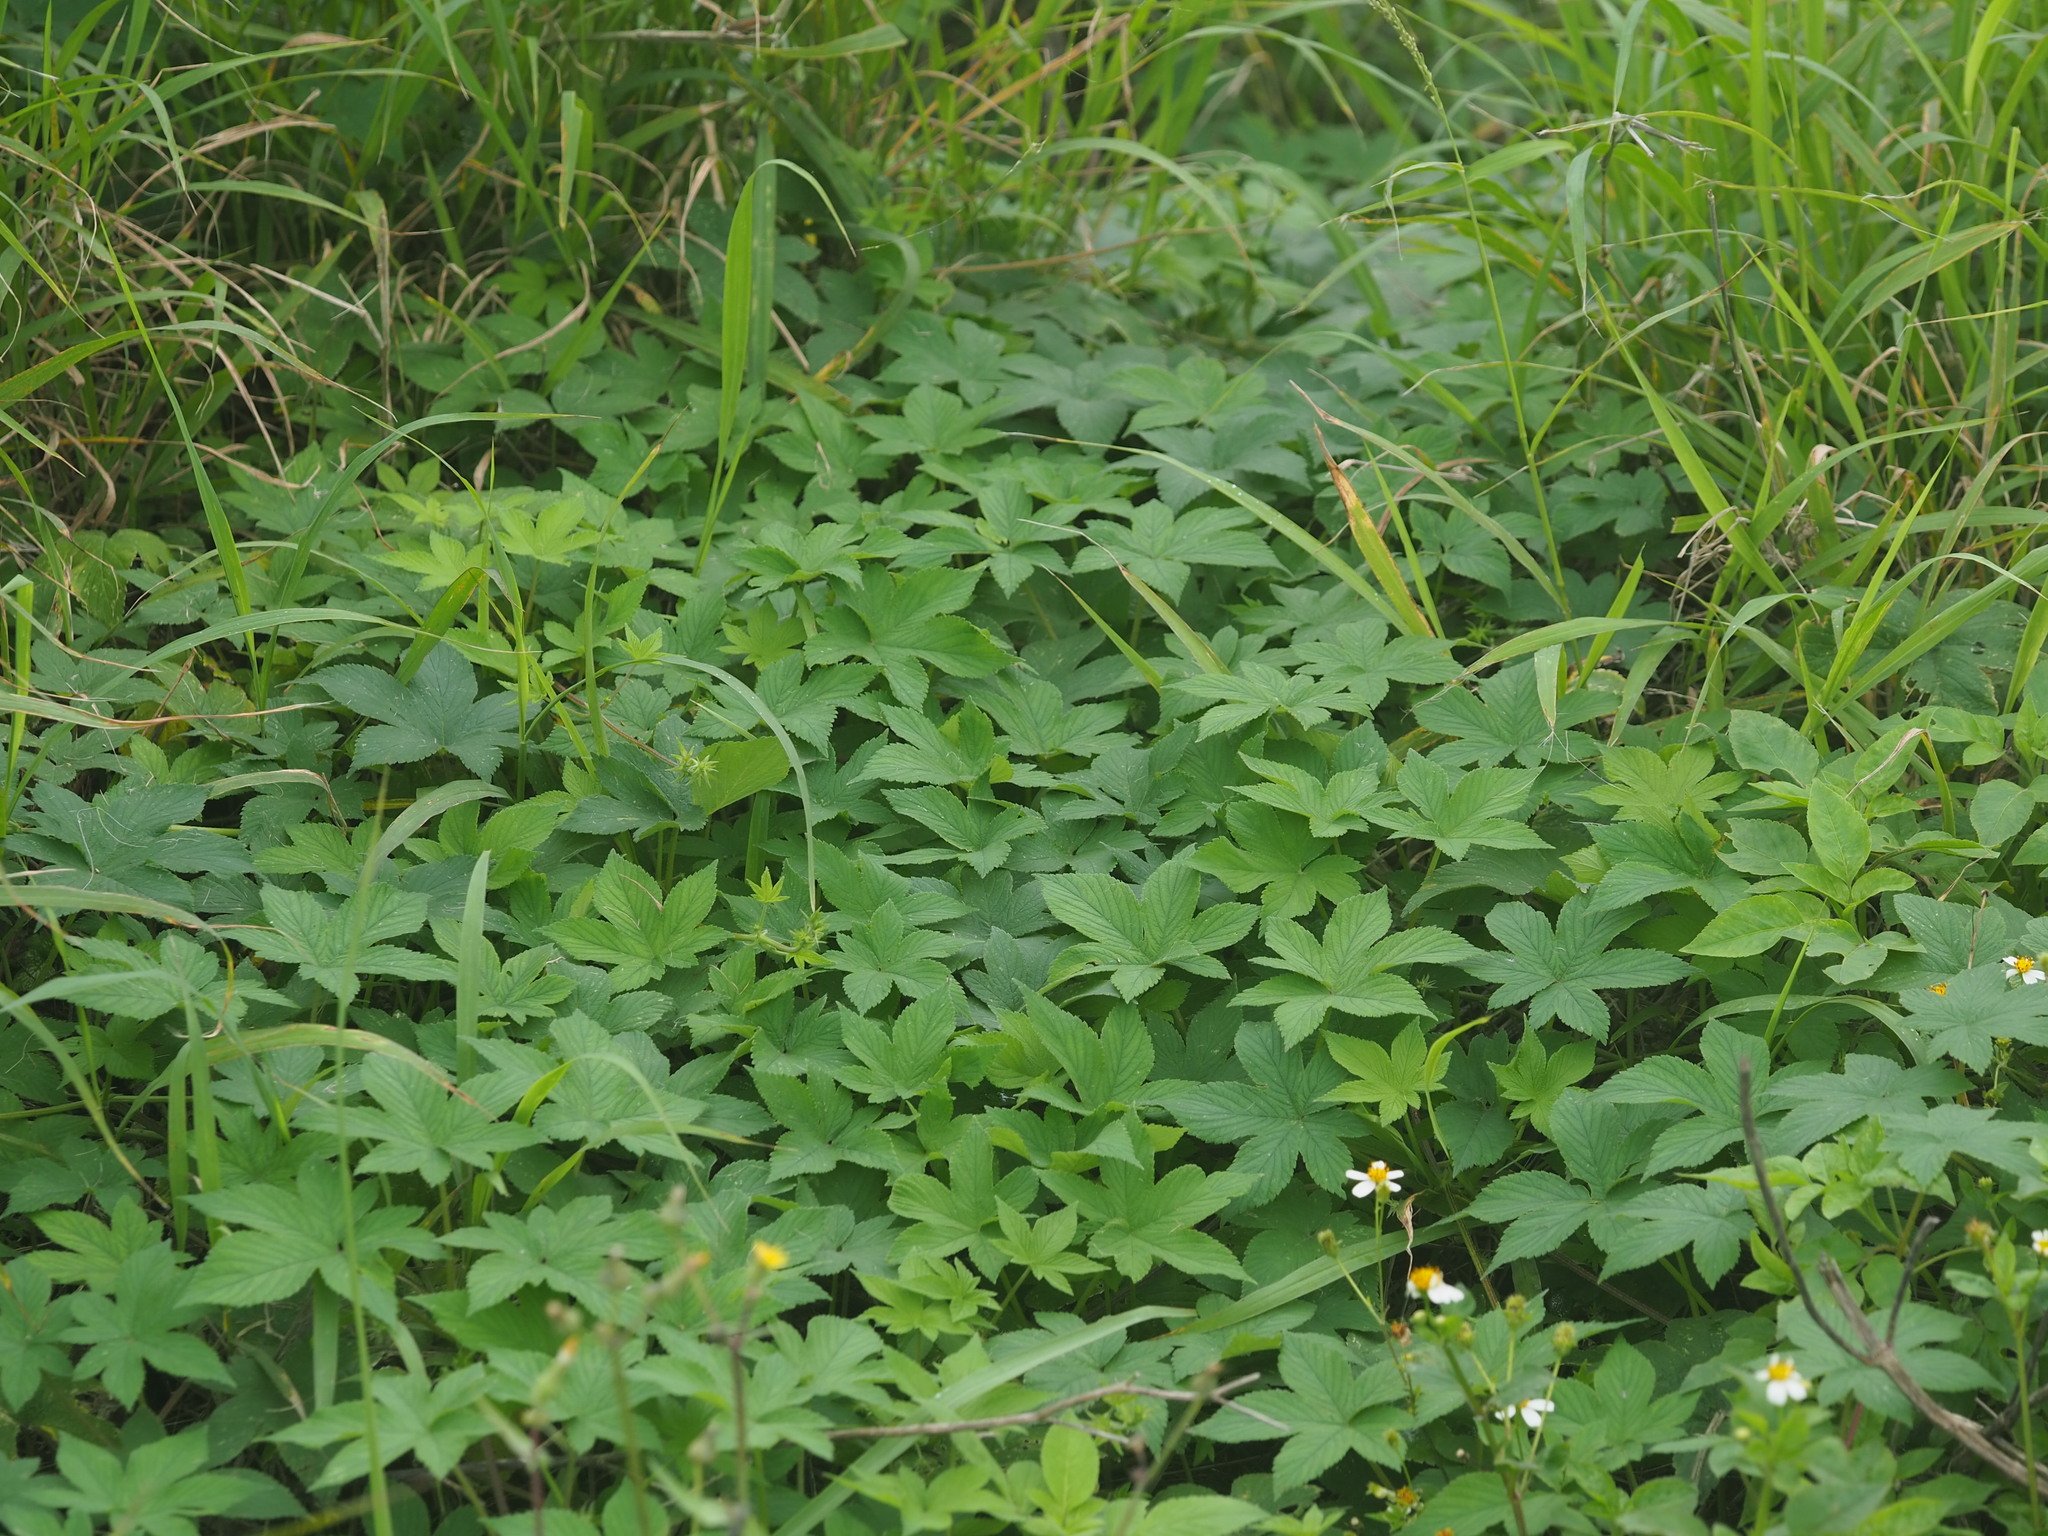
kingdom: Plantae
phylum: Tracheophyta
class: Magnoliopsida
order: Rosales
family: Cannabaceae
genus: Humulus
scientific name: Humulus scandens
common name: Japanese hop
